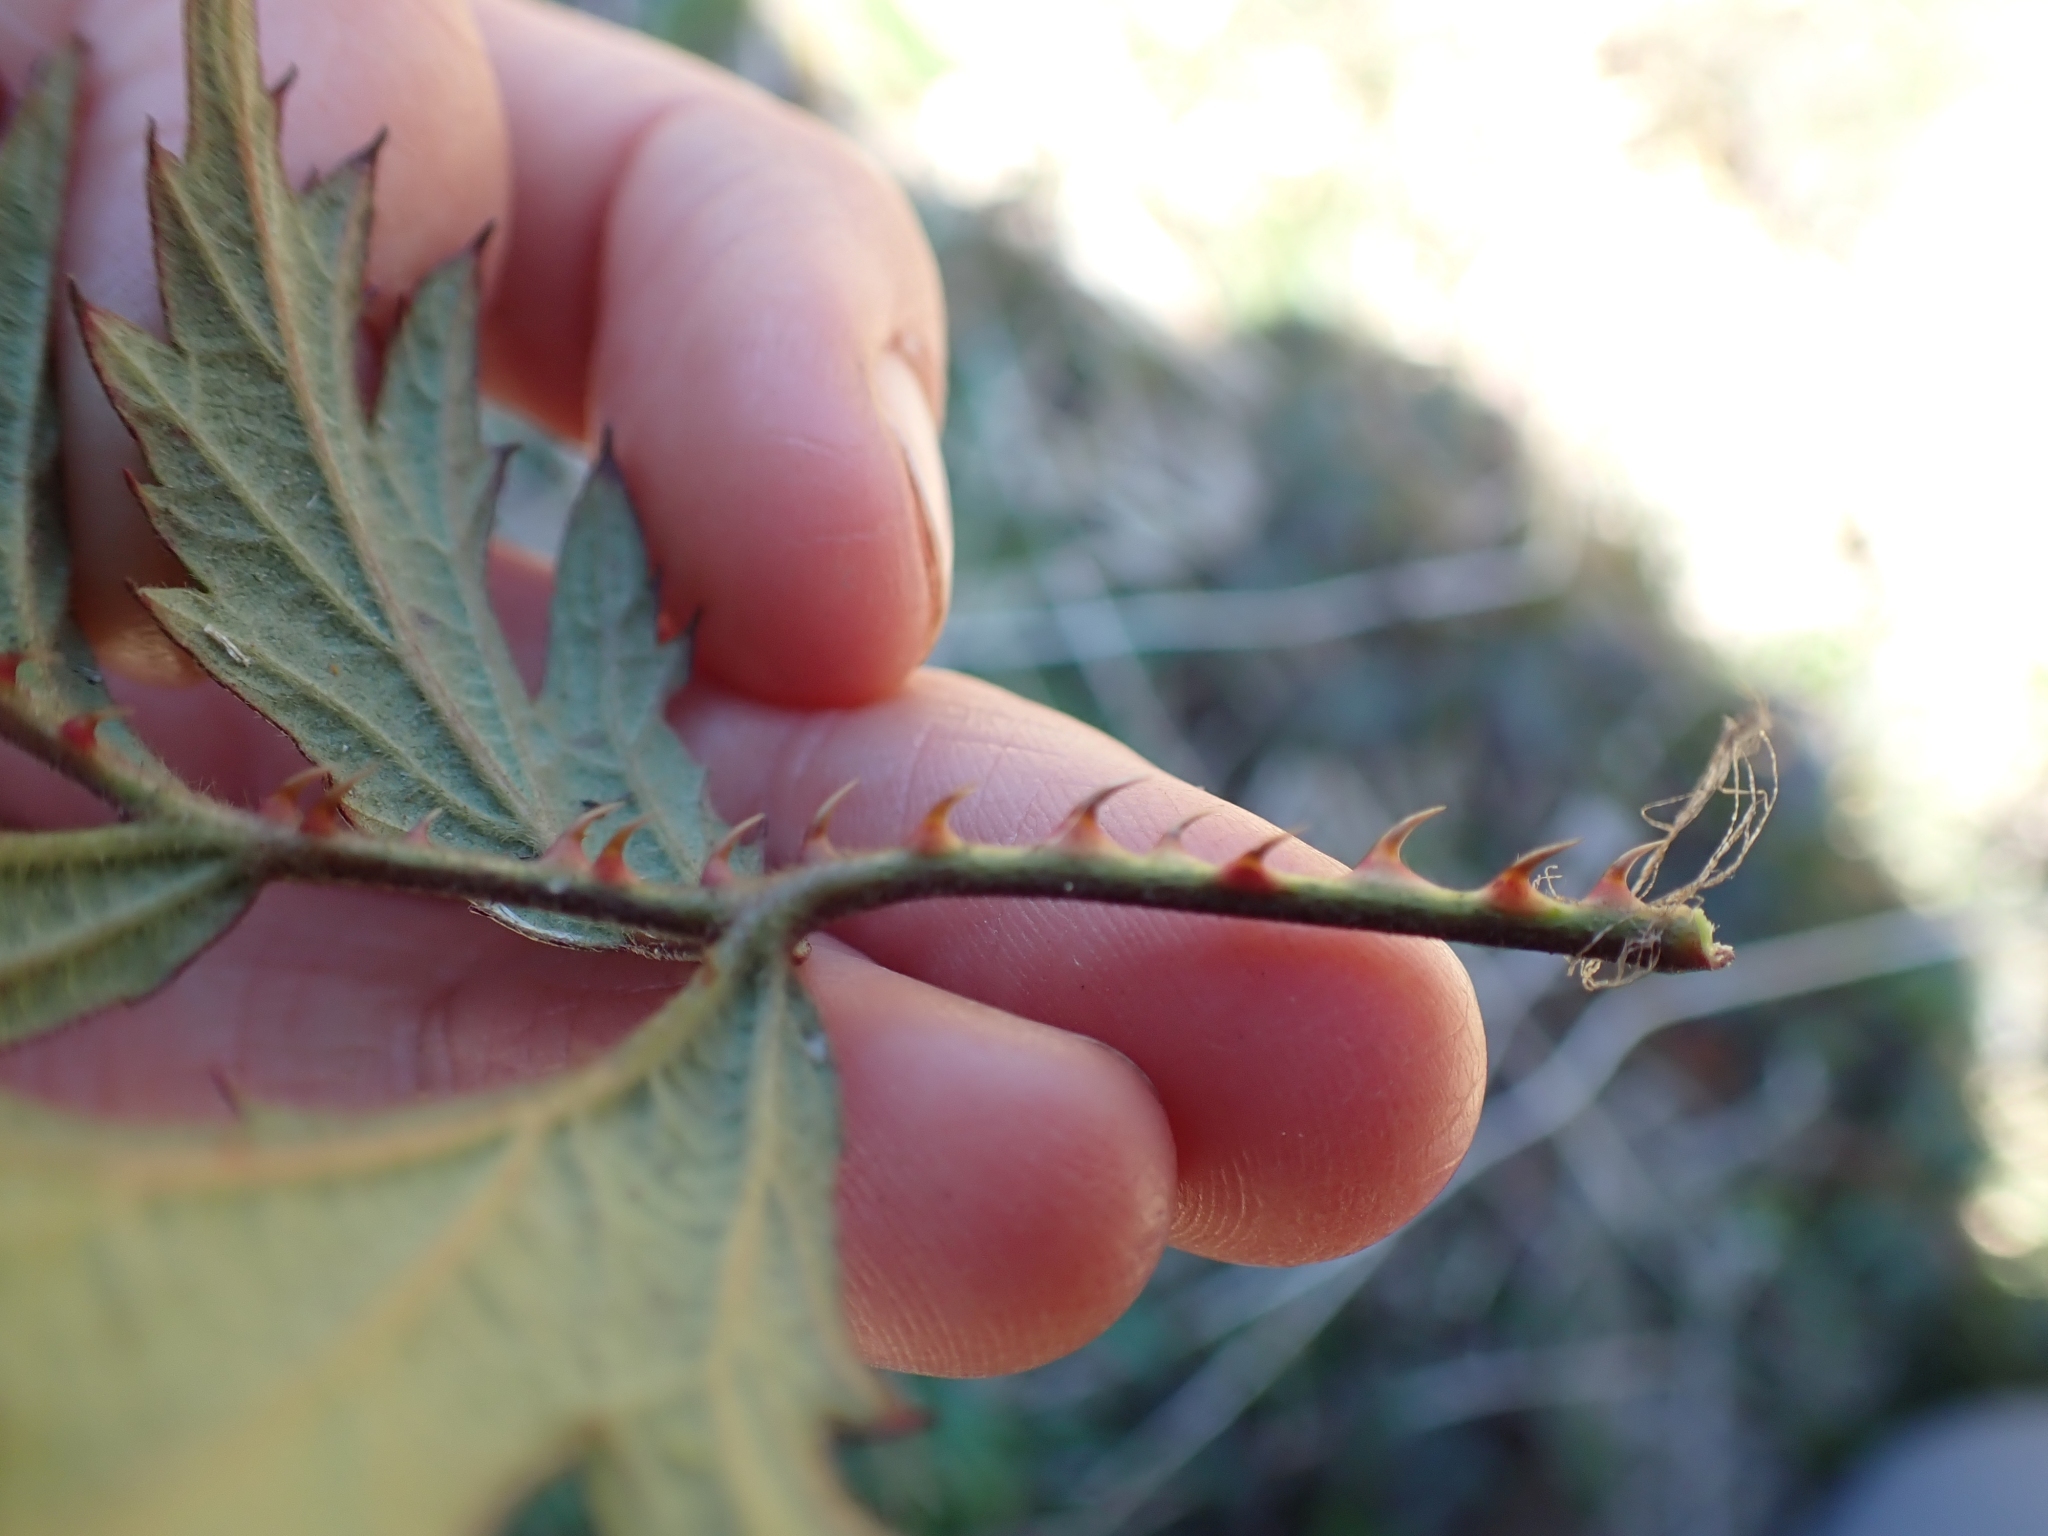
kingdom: Plantae
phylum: Tracheophyta
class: Magnoliopsida
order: Rosales
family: Rosaceae
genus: Rubus
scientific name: Rubus laciniatus
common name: Evergreen blackberry
